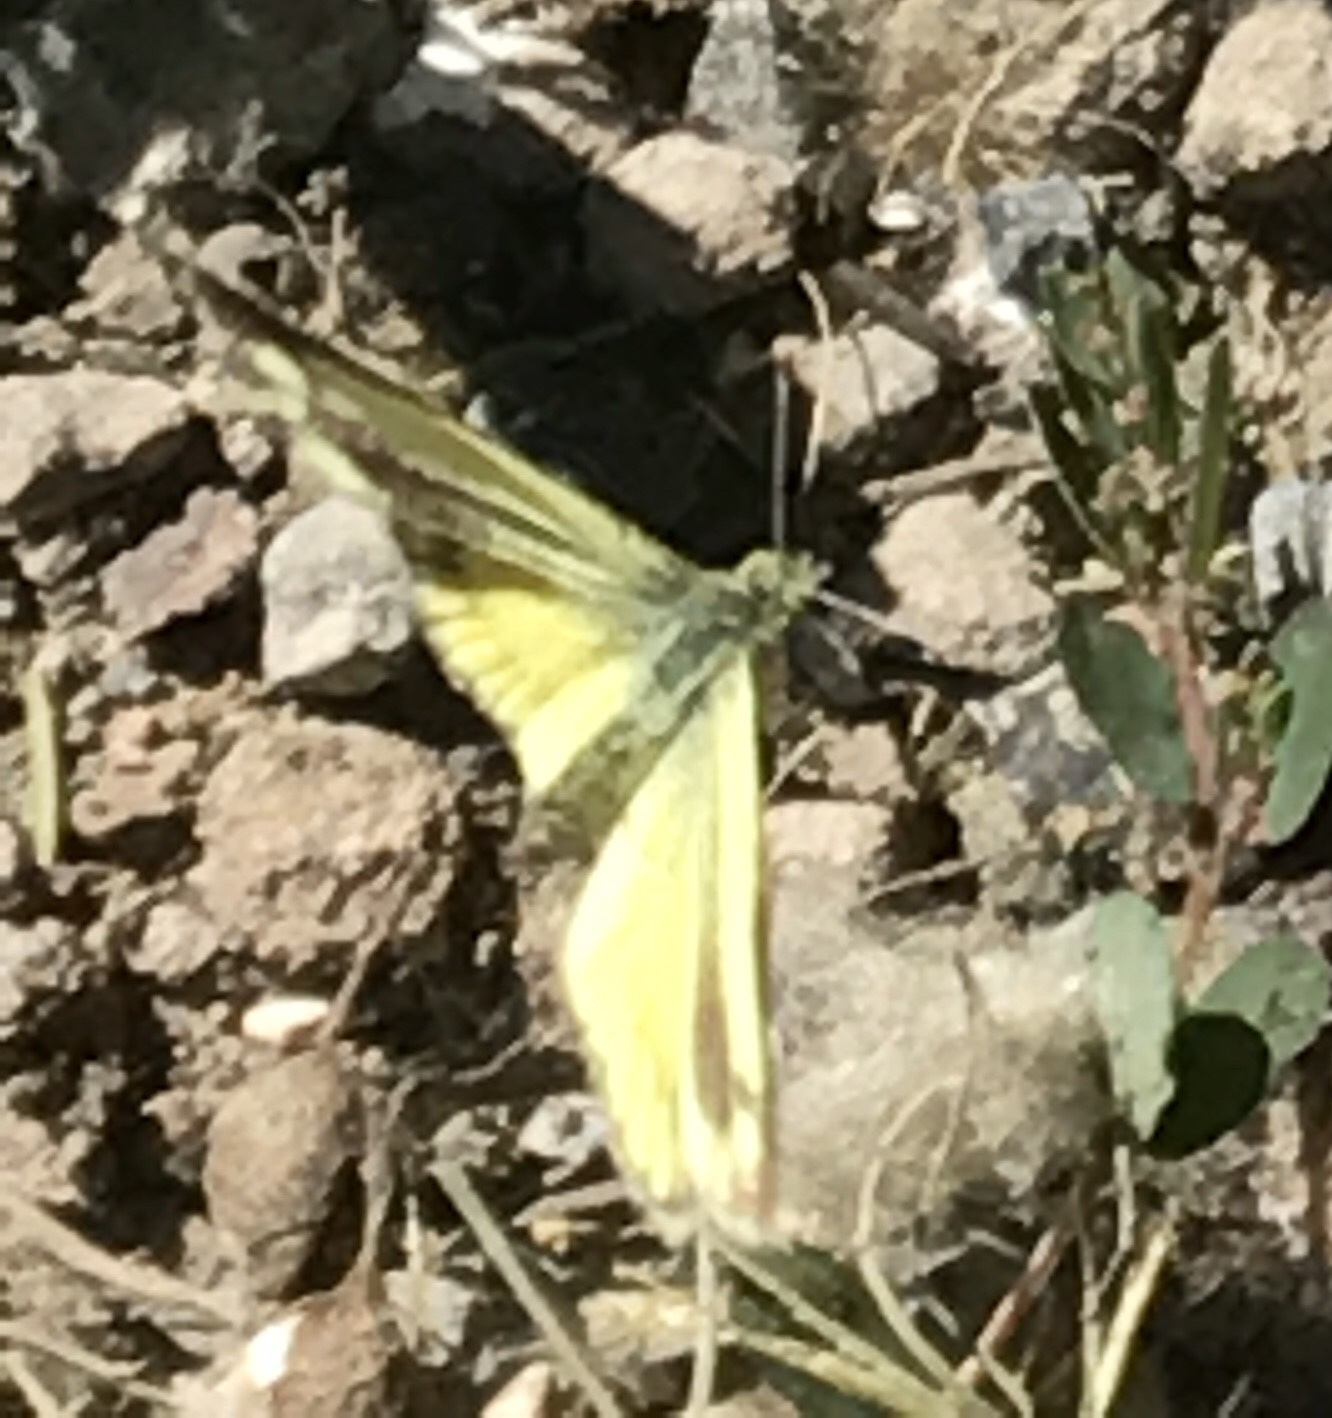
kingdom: Animalia
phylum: Arthropoda
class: Insecta
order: Lepidoptera
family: Pieridae
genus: Nathalis
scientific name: Nathalis iole
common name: Dainty sulphur
